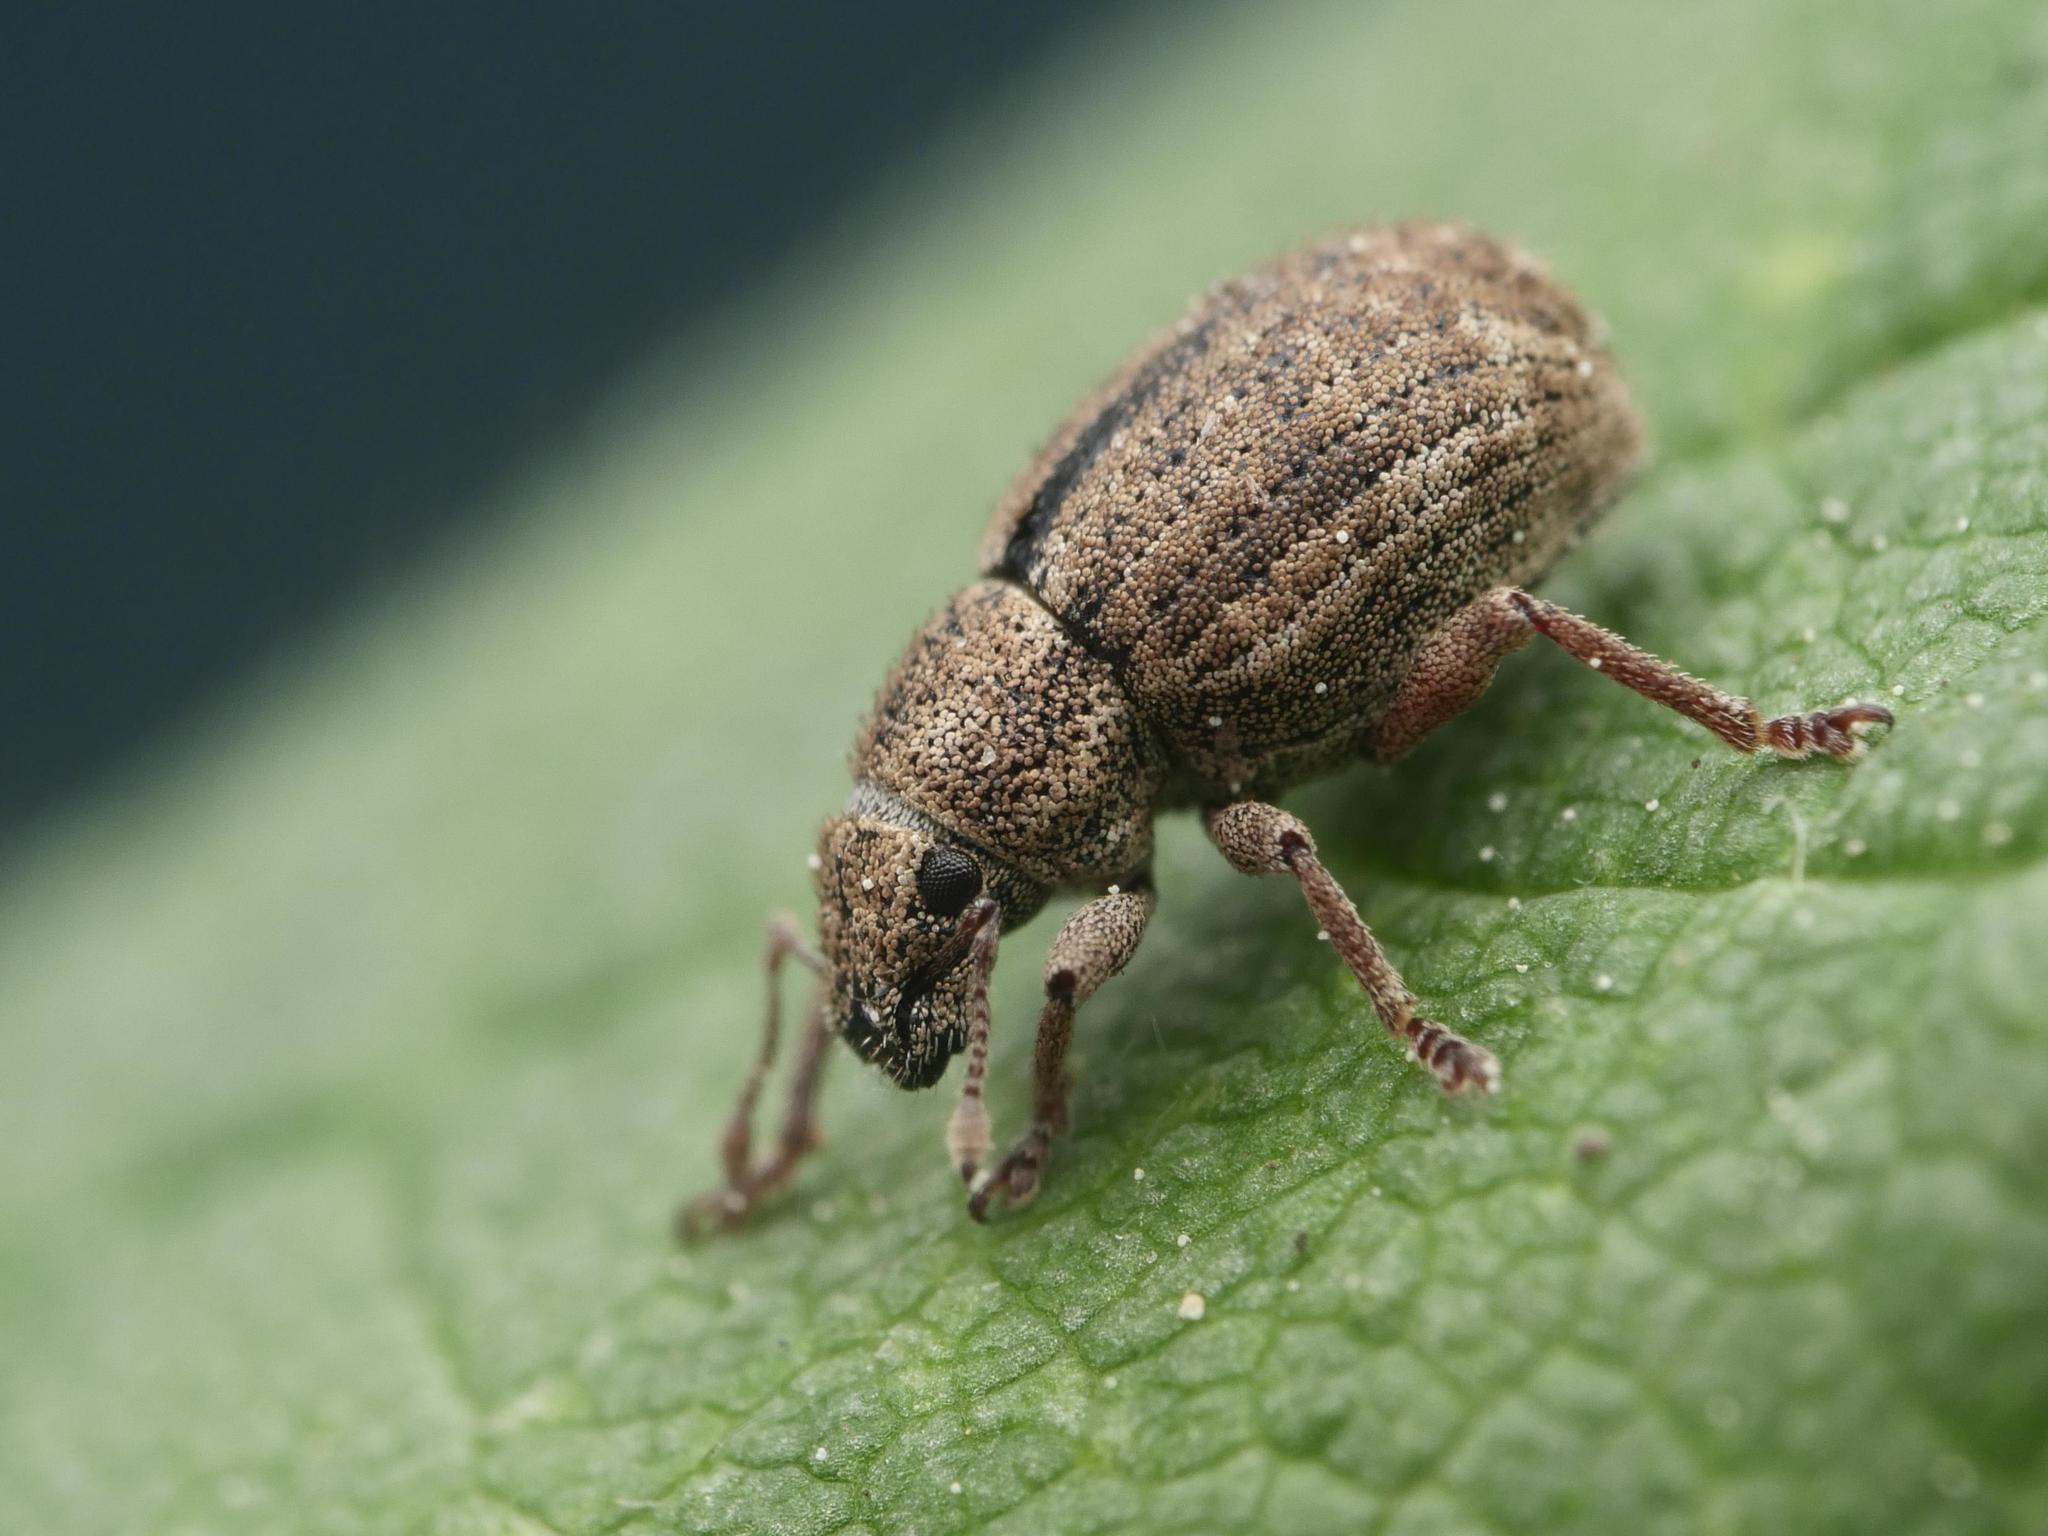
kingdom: Animalia
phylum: Arthropoda
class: Insecta
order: Coleoptera
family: Curculionidae
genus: Strophosoma
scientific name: Strophosoma melanogrammum
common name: Weevil
